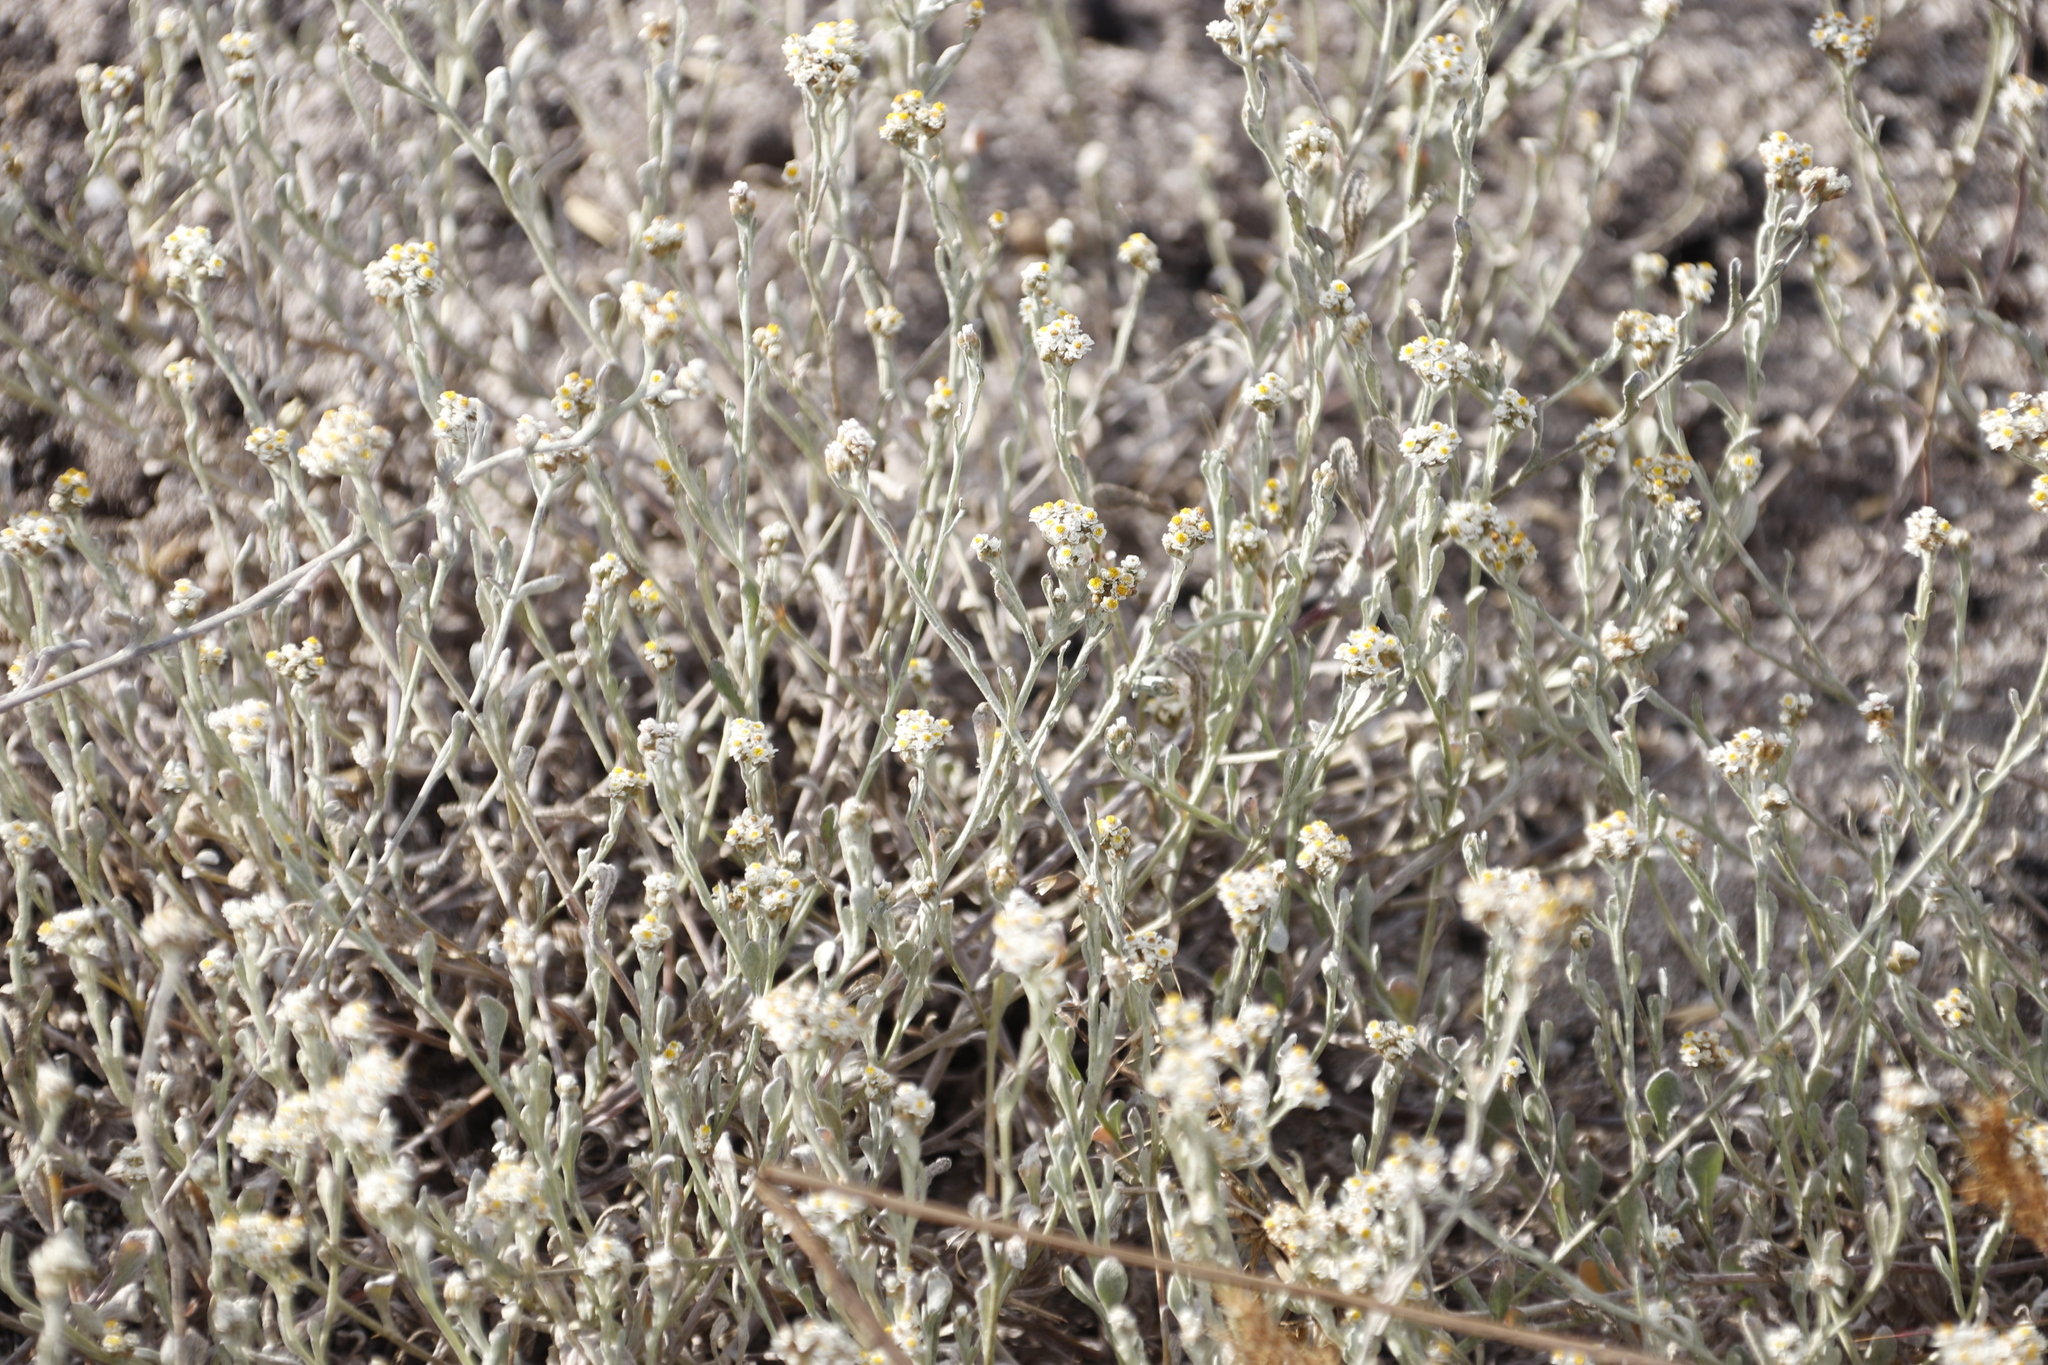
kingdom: Plantae
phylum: Tracheophyta
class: Magnoliopsida
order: Asterales
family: Asteraceae
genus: Helichrysum
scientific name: Helichrysum indicum
